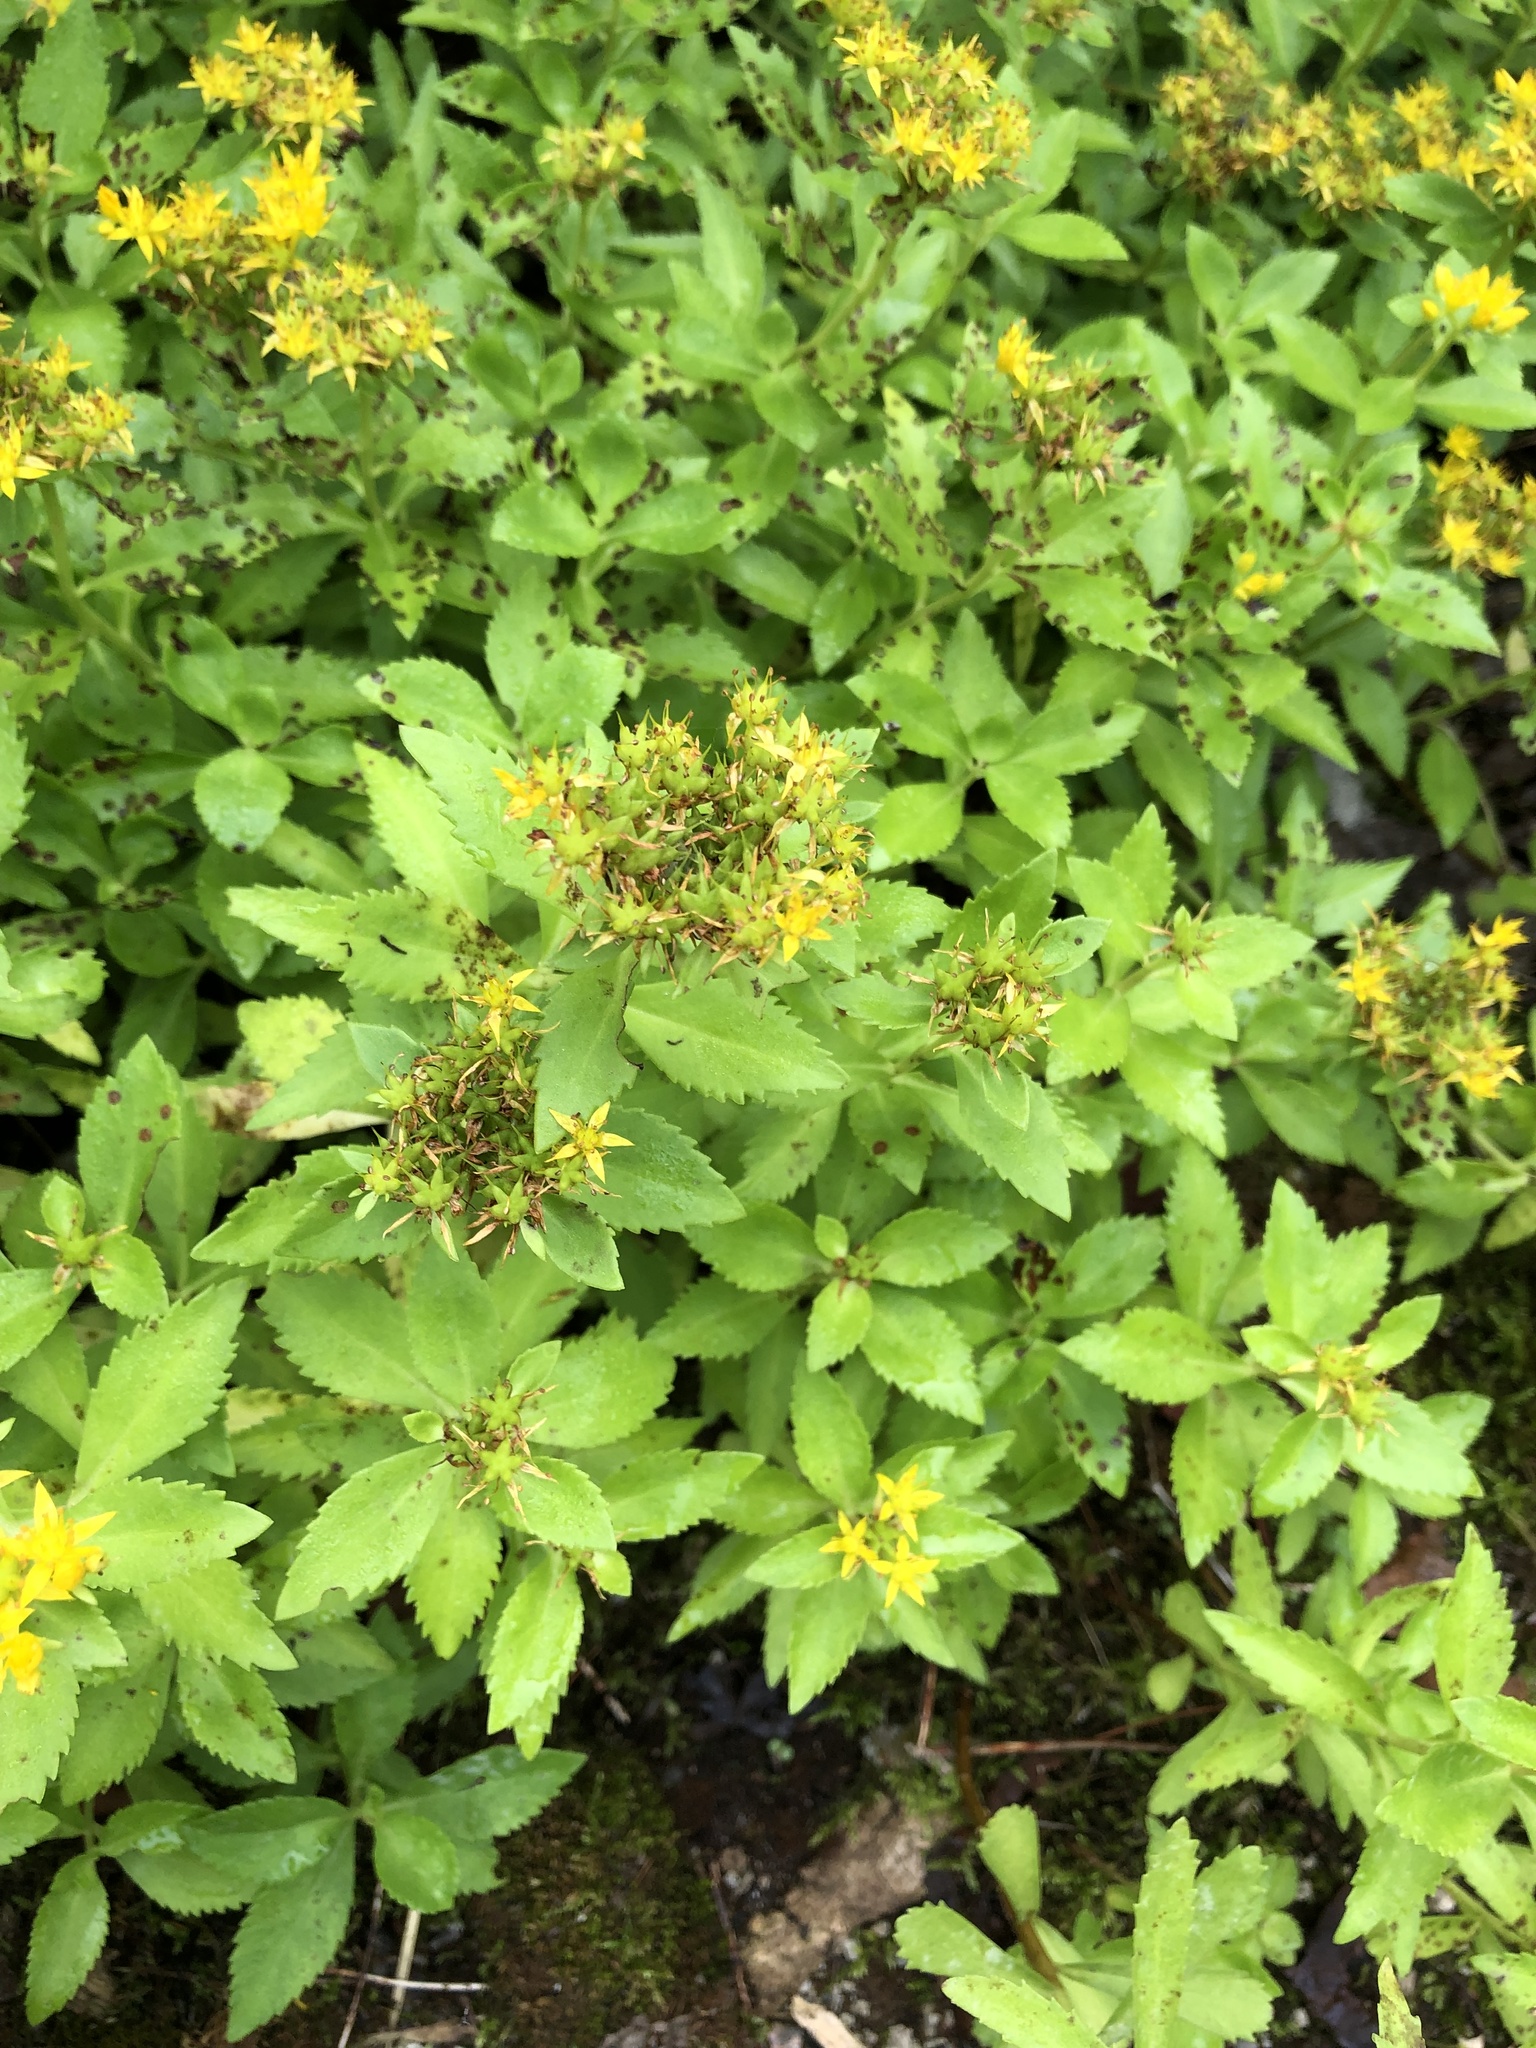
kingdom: Plantae
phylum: Tracheophyta
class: Magnoliopsida
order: Saxifragales
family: Crassulaceae
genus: Phedimus
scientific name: Phedimus aizoon
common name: Orpin aizoon
